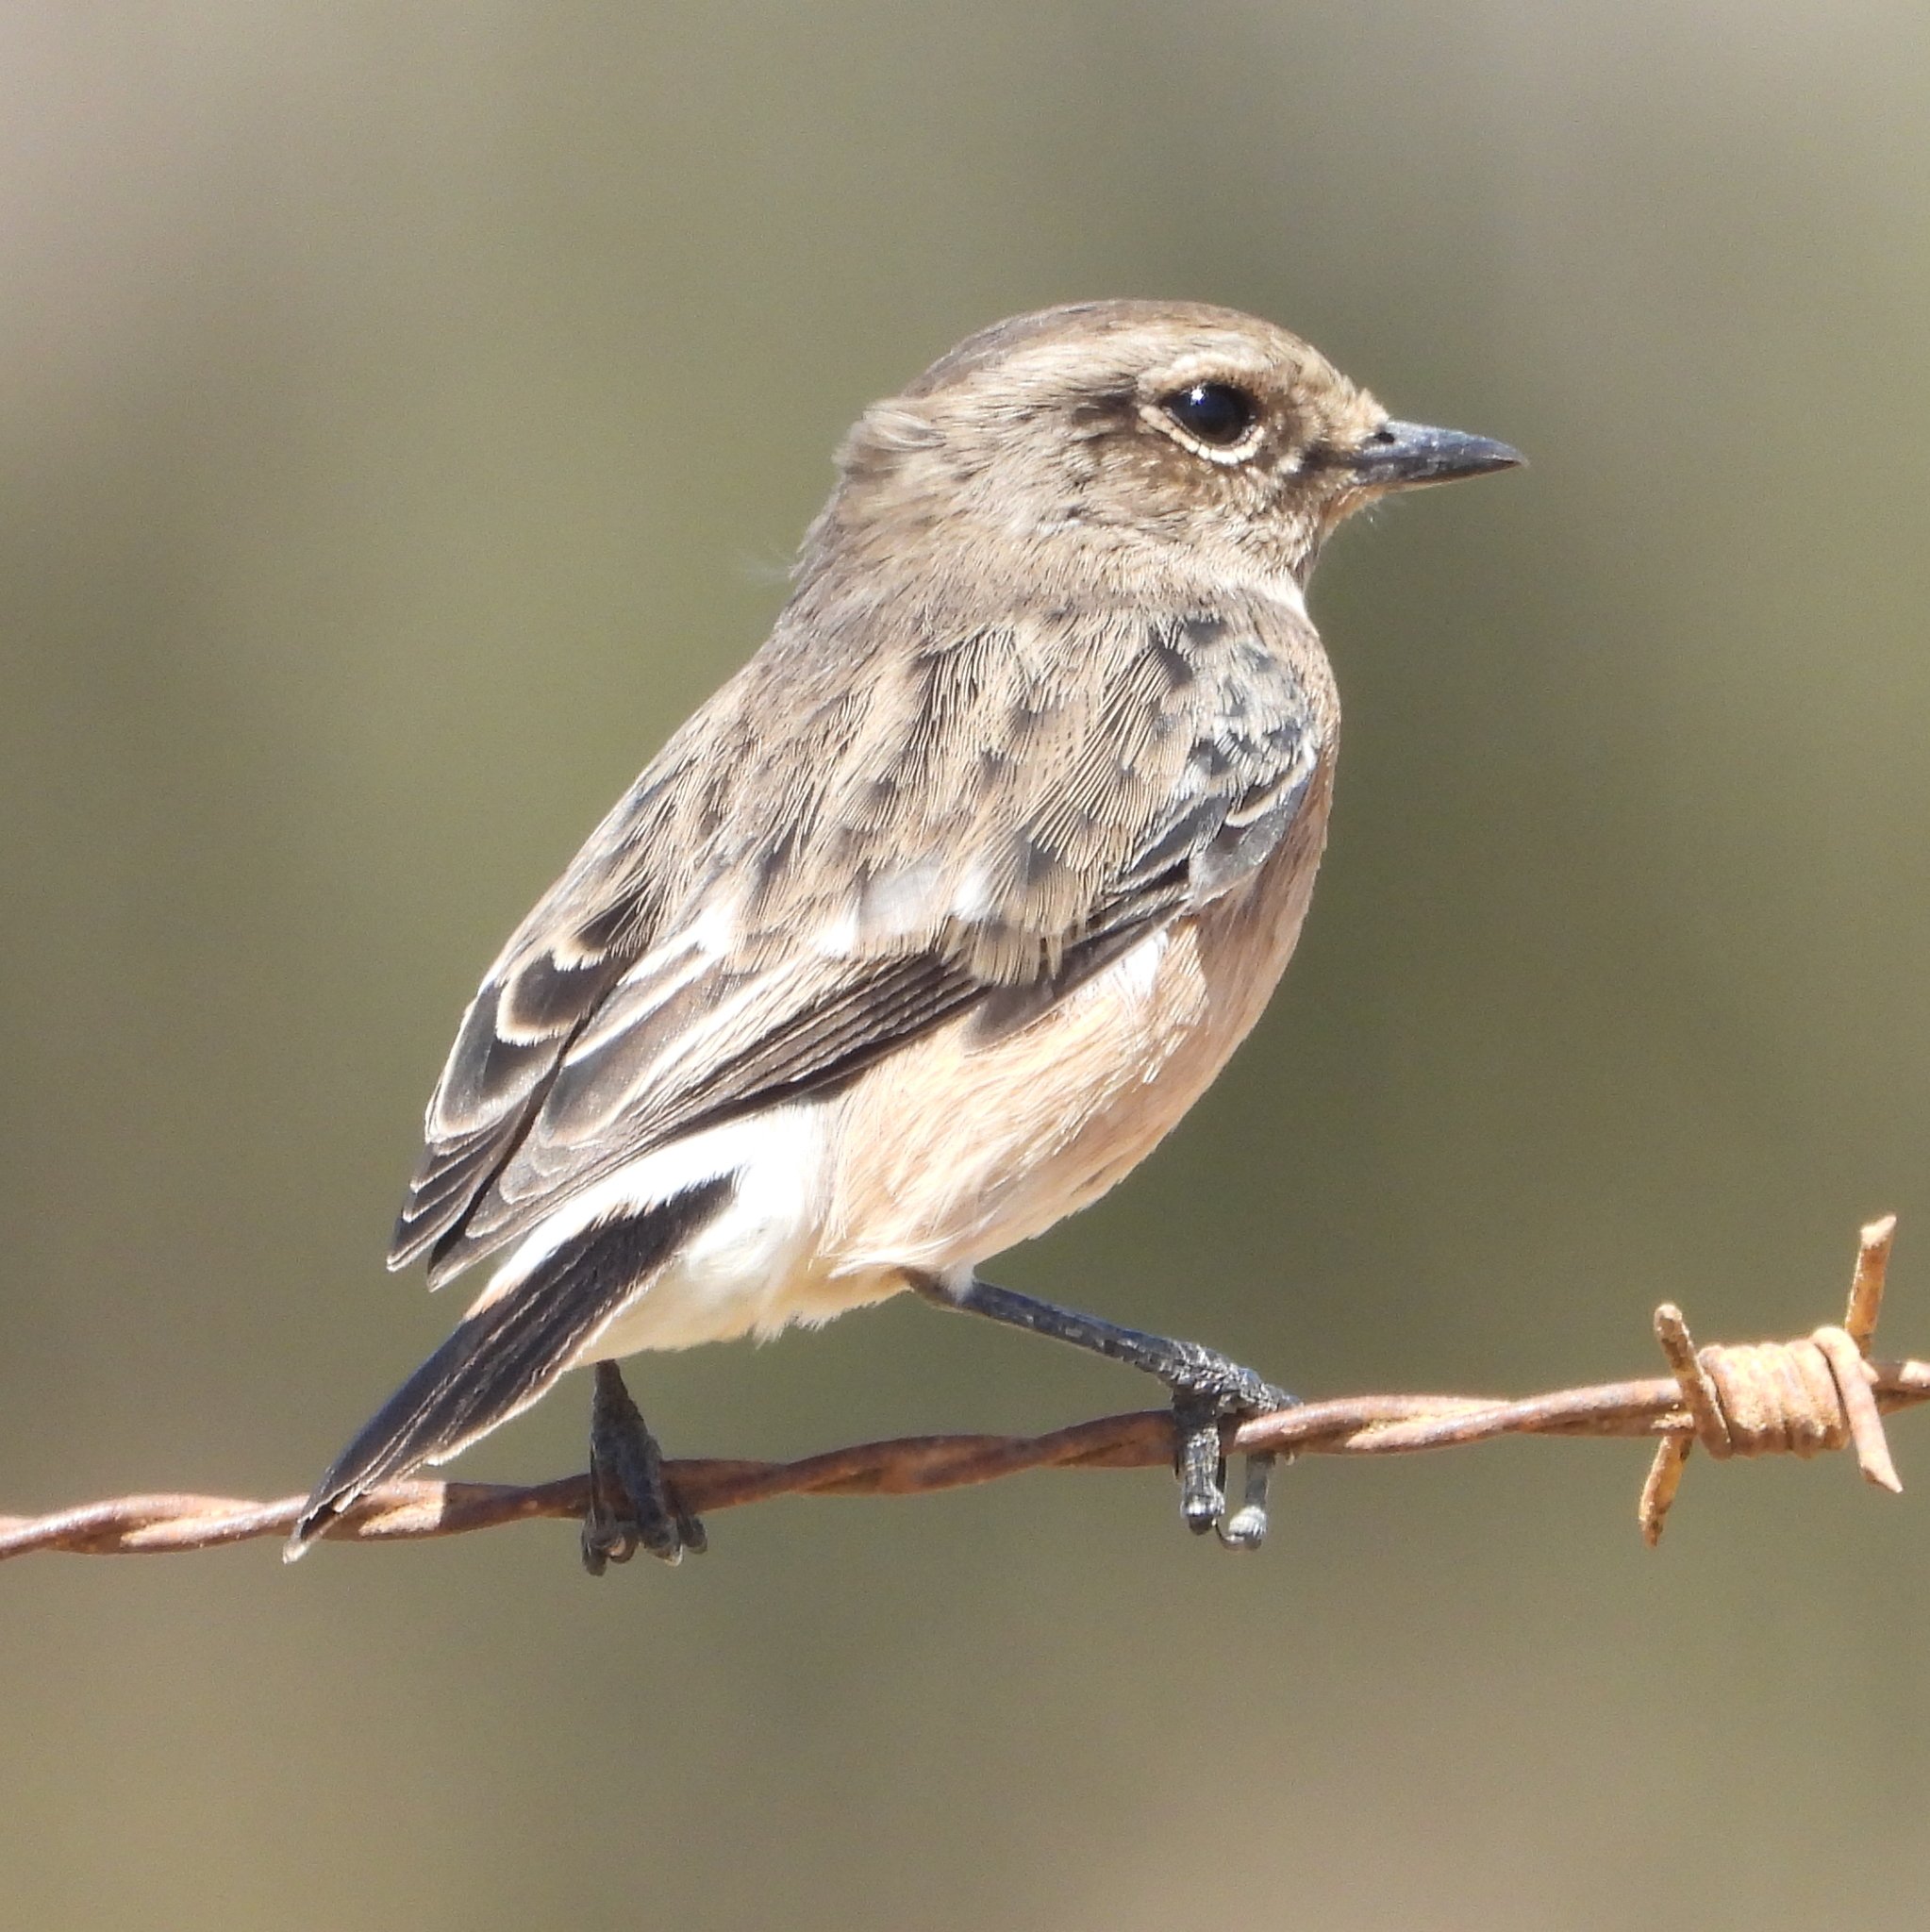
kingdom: Animalia
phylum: Chordata
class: Aves
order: Passeriformes
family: Muscicapidae
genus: Saxicola
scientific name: Saxicola torquatus
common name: African stonechat
